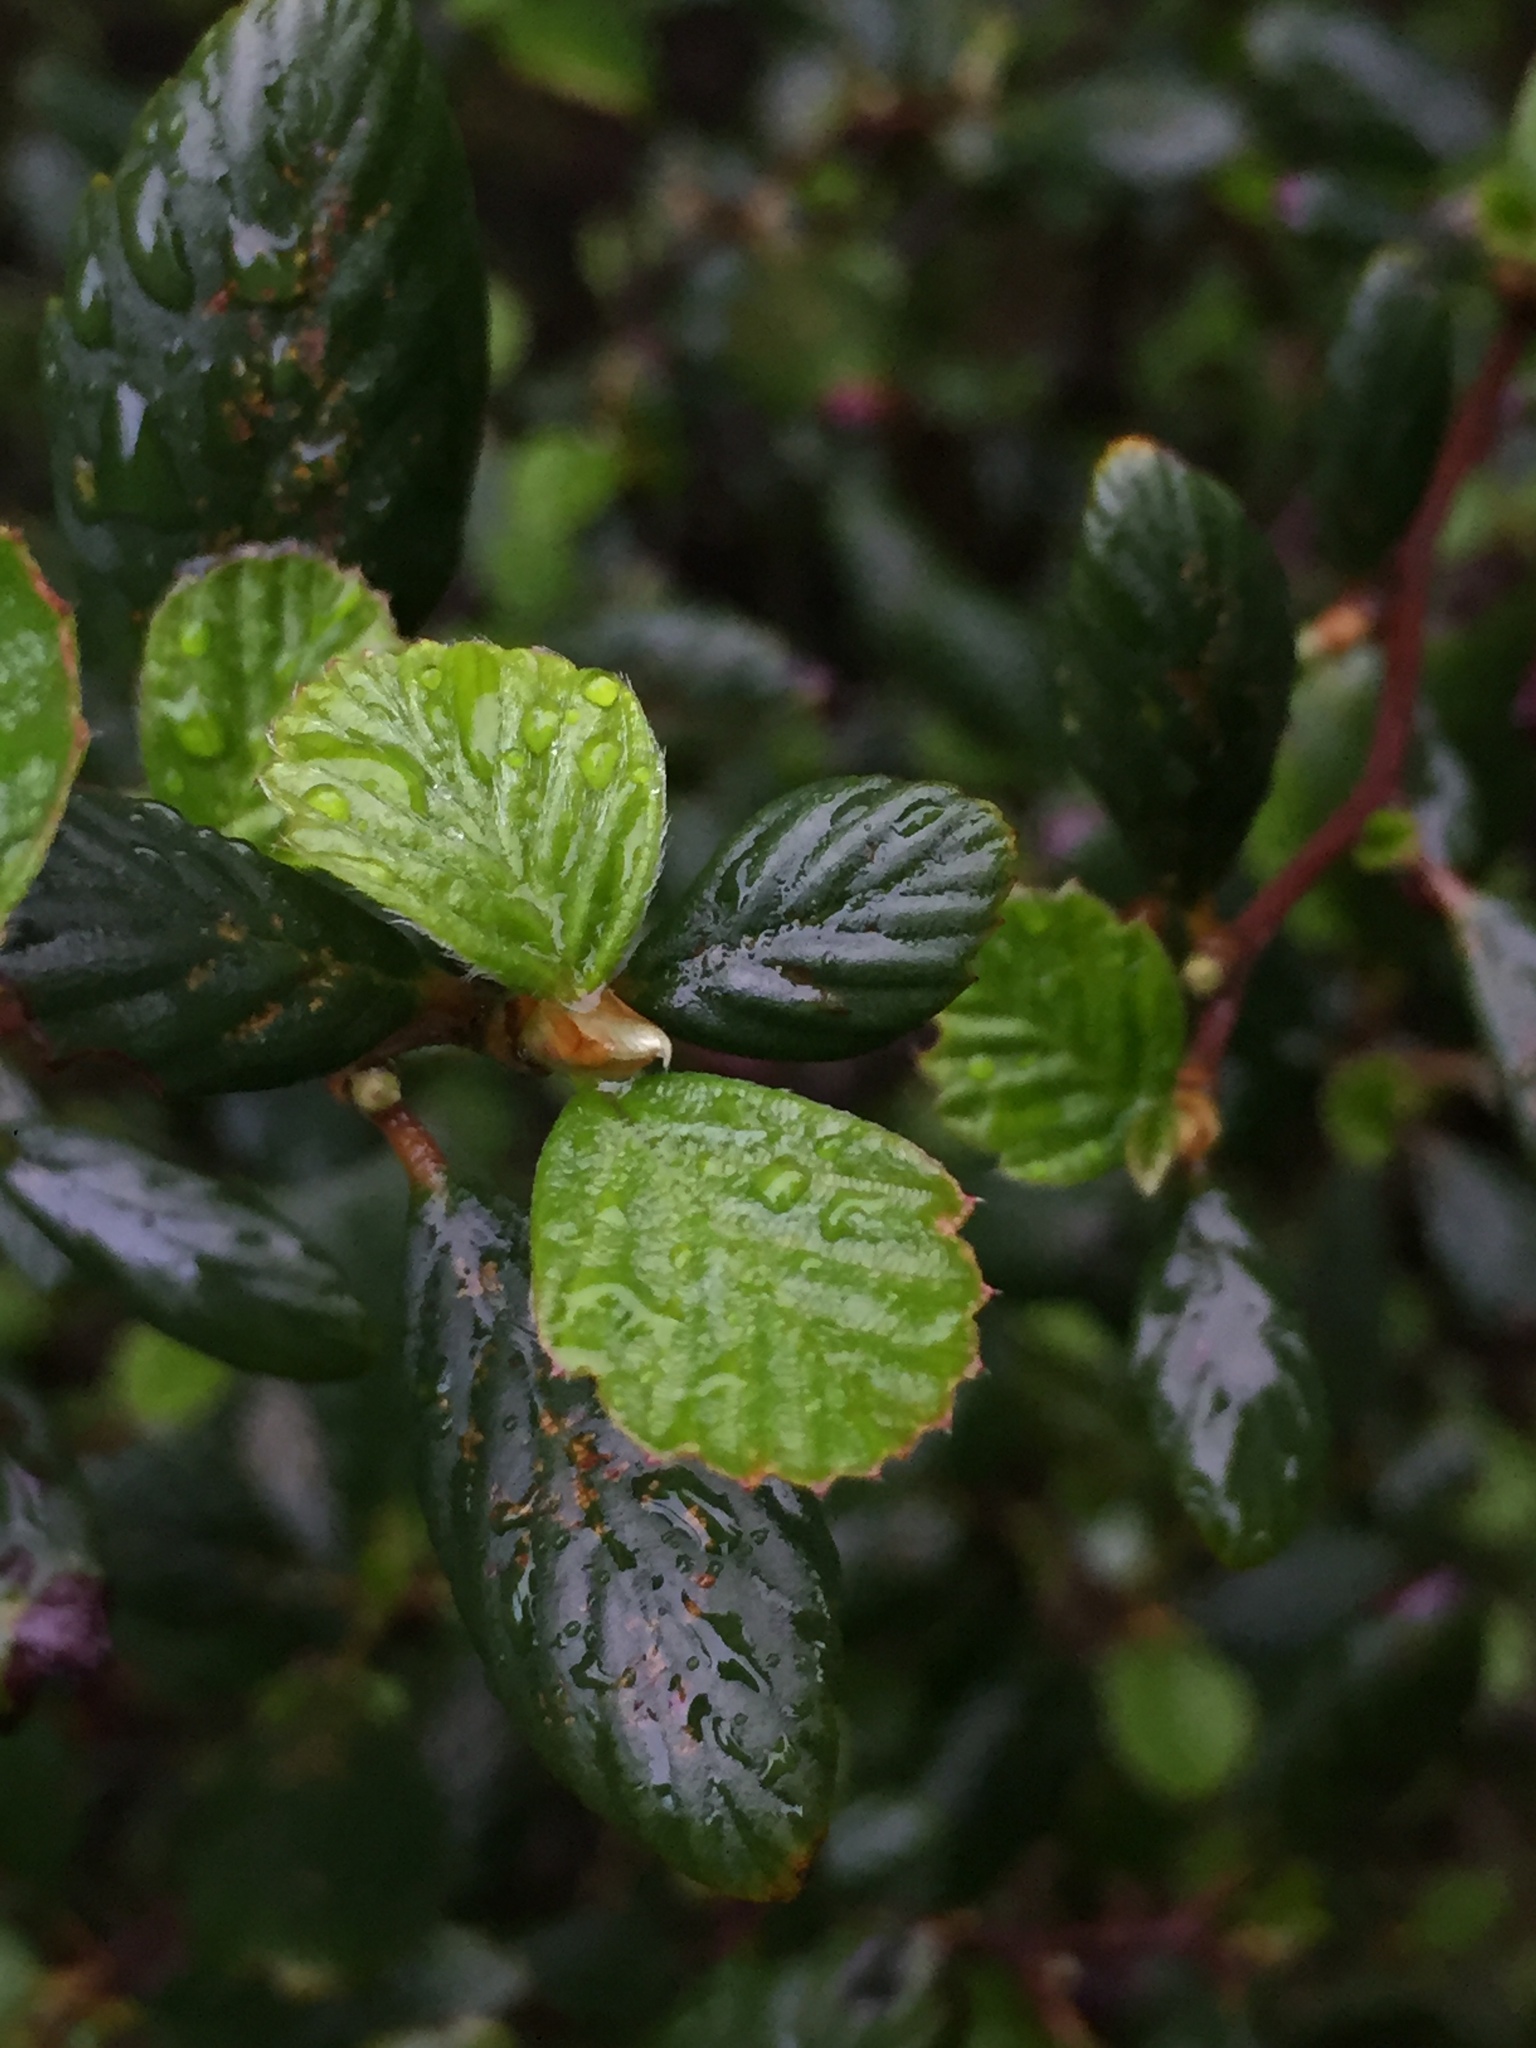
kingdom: Plantae
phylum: Tracheophyta
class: Magnoliopsida
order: Rosales
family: Rosaceae
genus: Cercocarpus
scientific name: Cercocarpus betuloides
